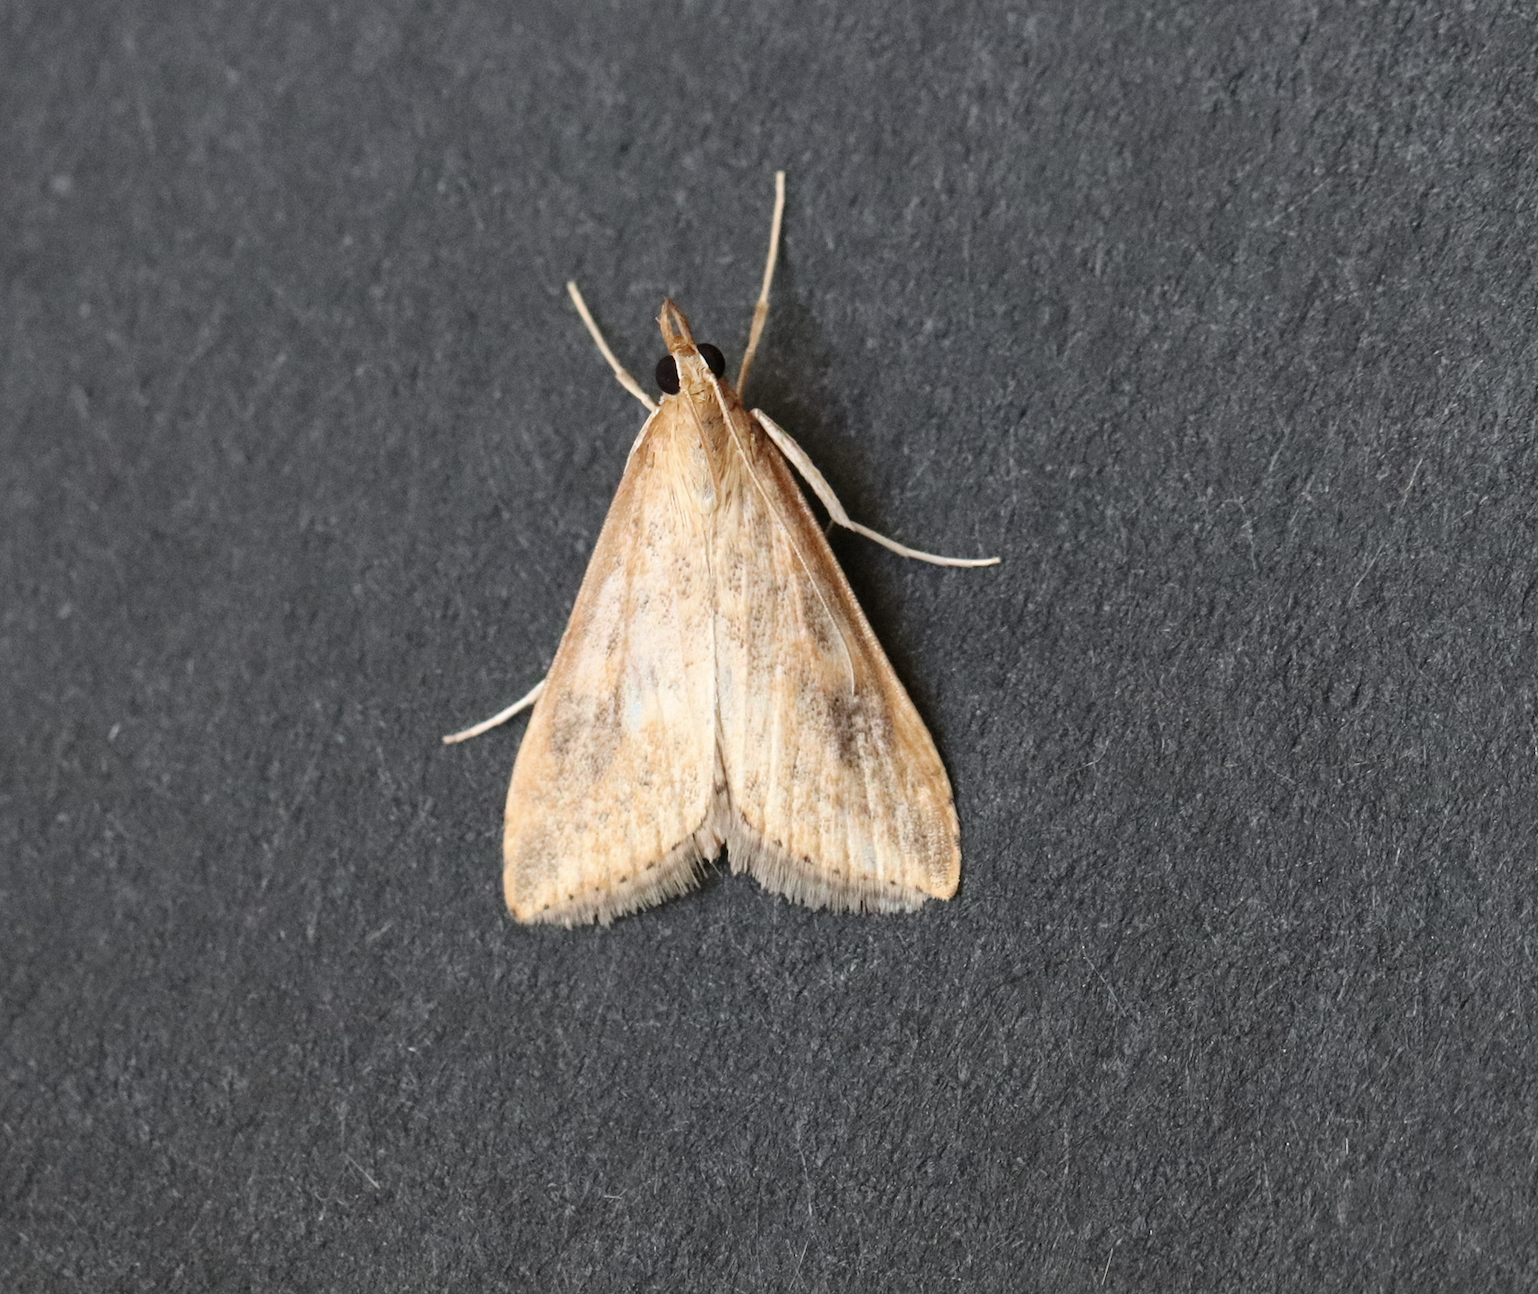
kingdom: Animalia
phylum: Arthropoda
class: Insecta
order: Lepidoptera
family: Crambidae
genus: Udea
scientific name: Udea ferrugalis
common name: Rusty dot
